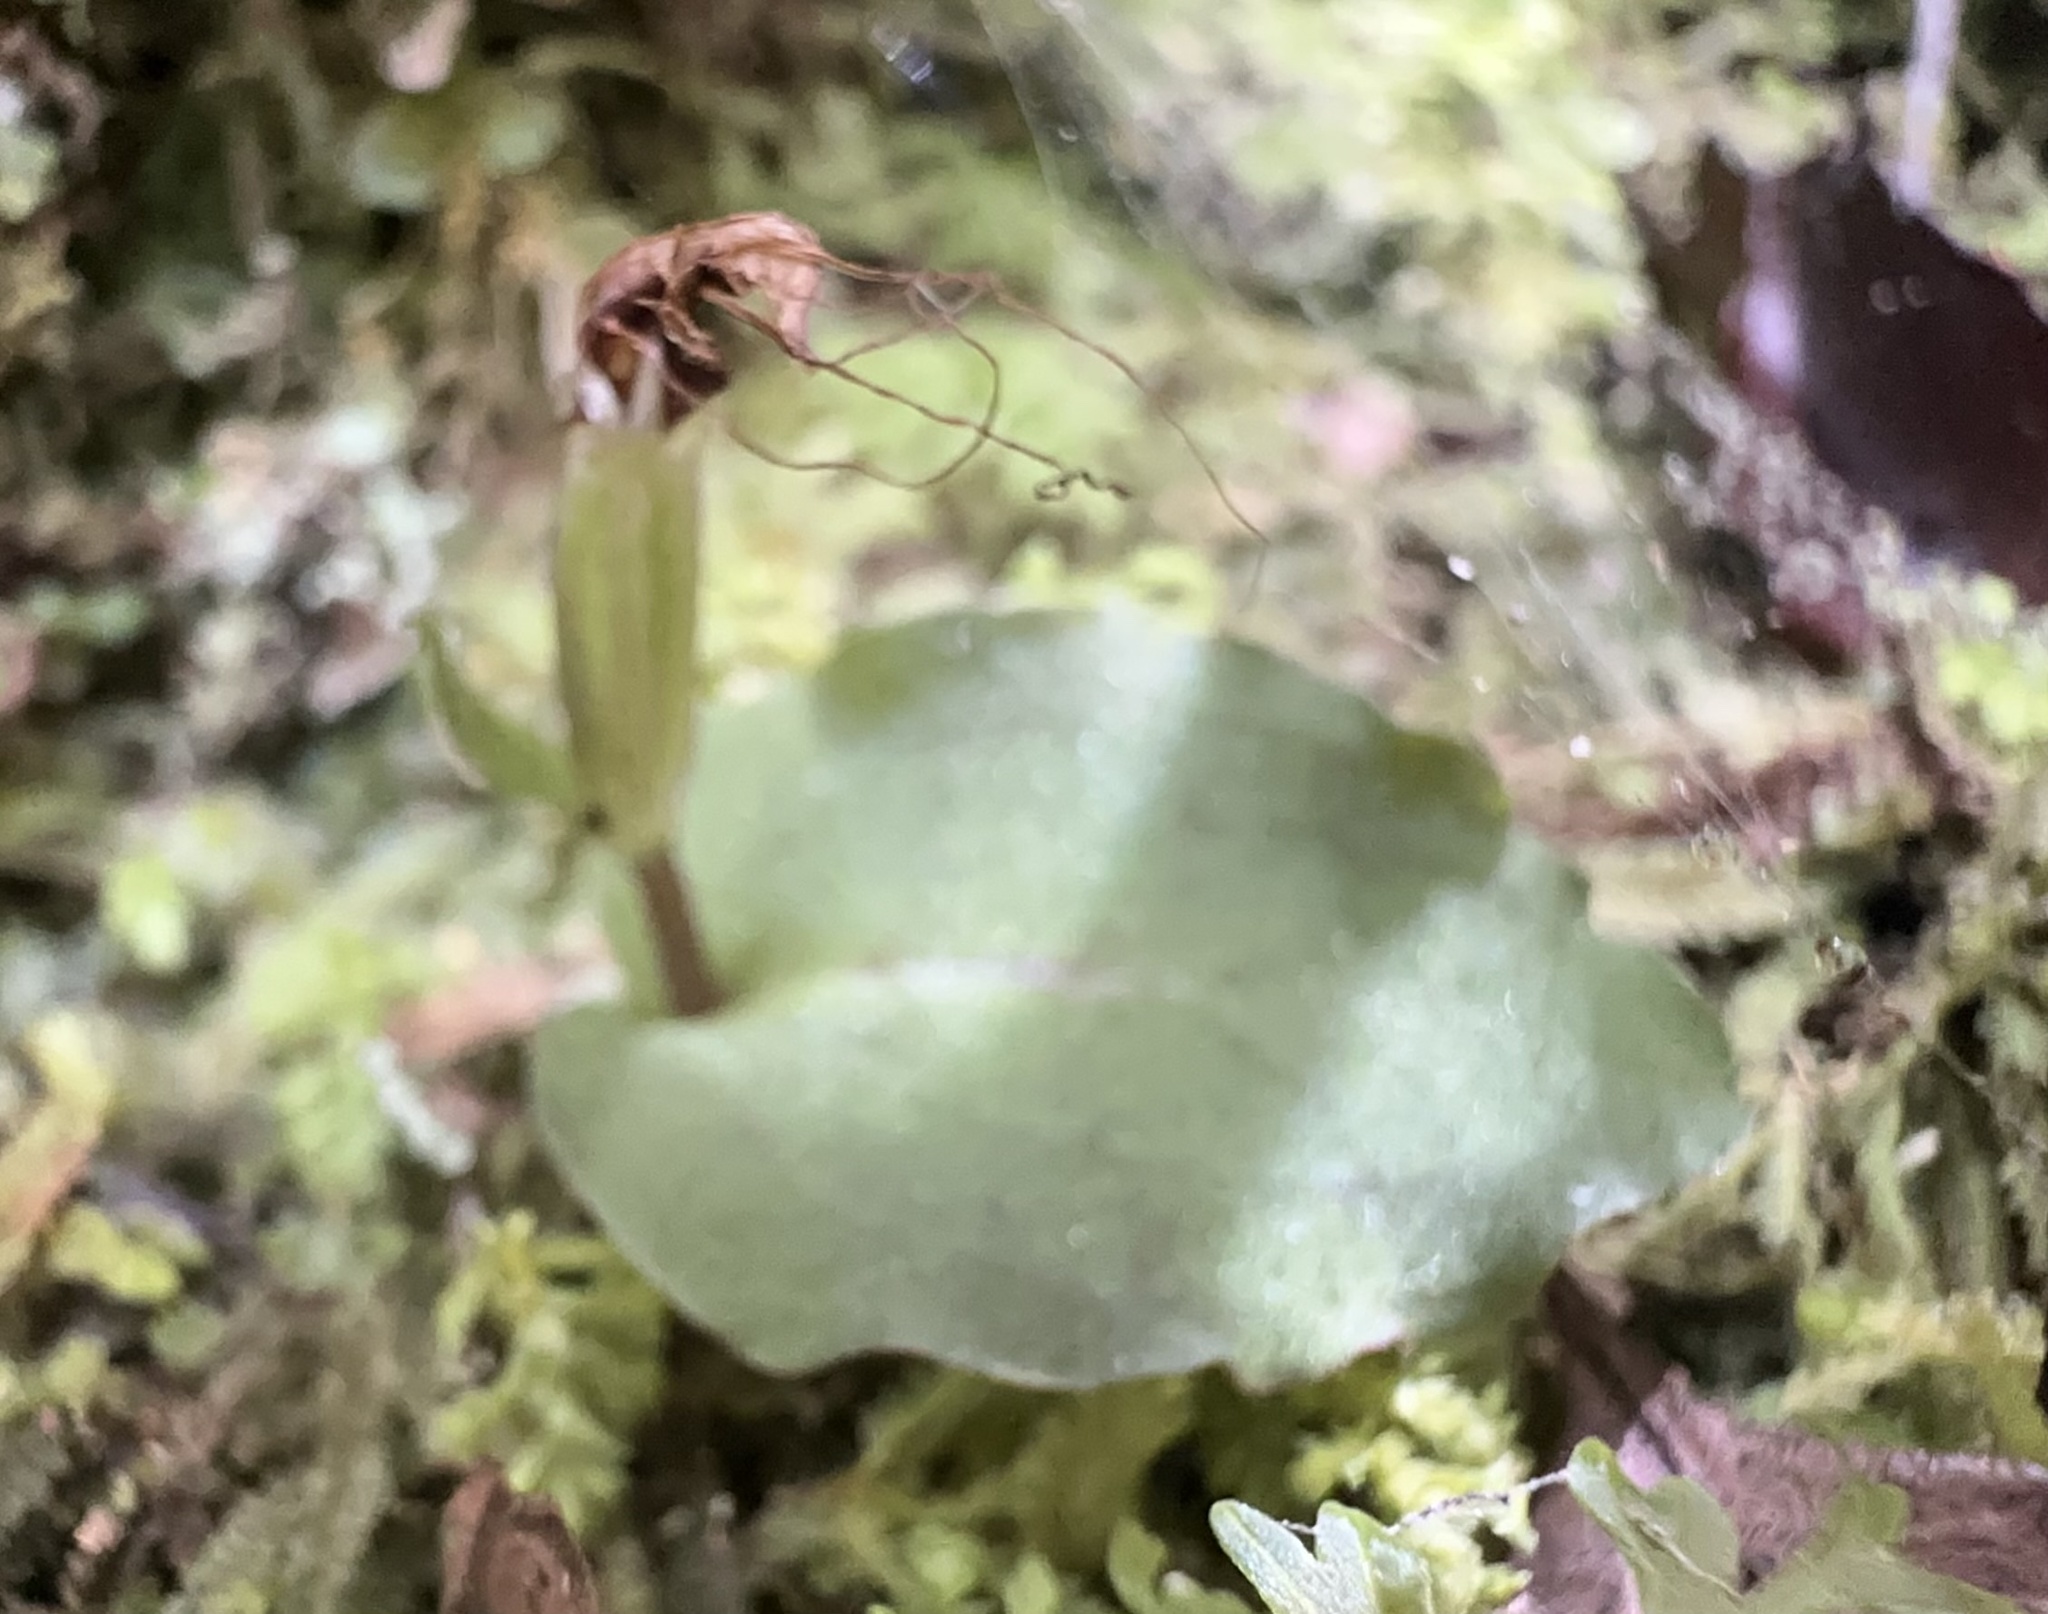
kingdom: Plantae
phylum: Tracheophyta
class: Liliopsida
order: Asparagales
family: Orchidaceae
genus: Corybas
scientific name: Corybas oblongus
